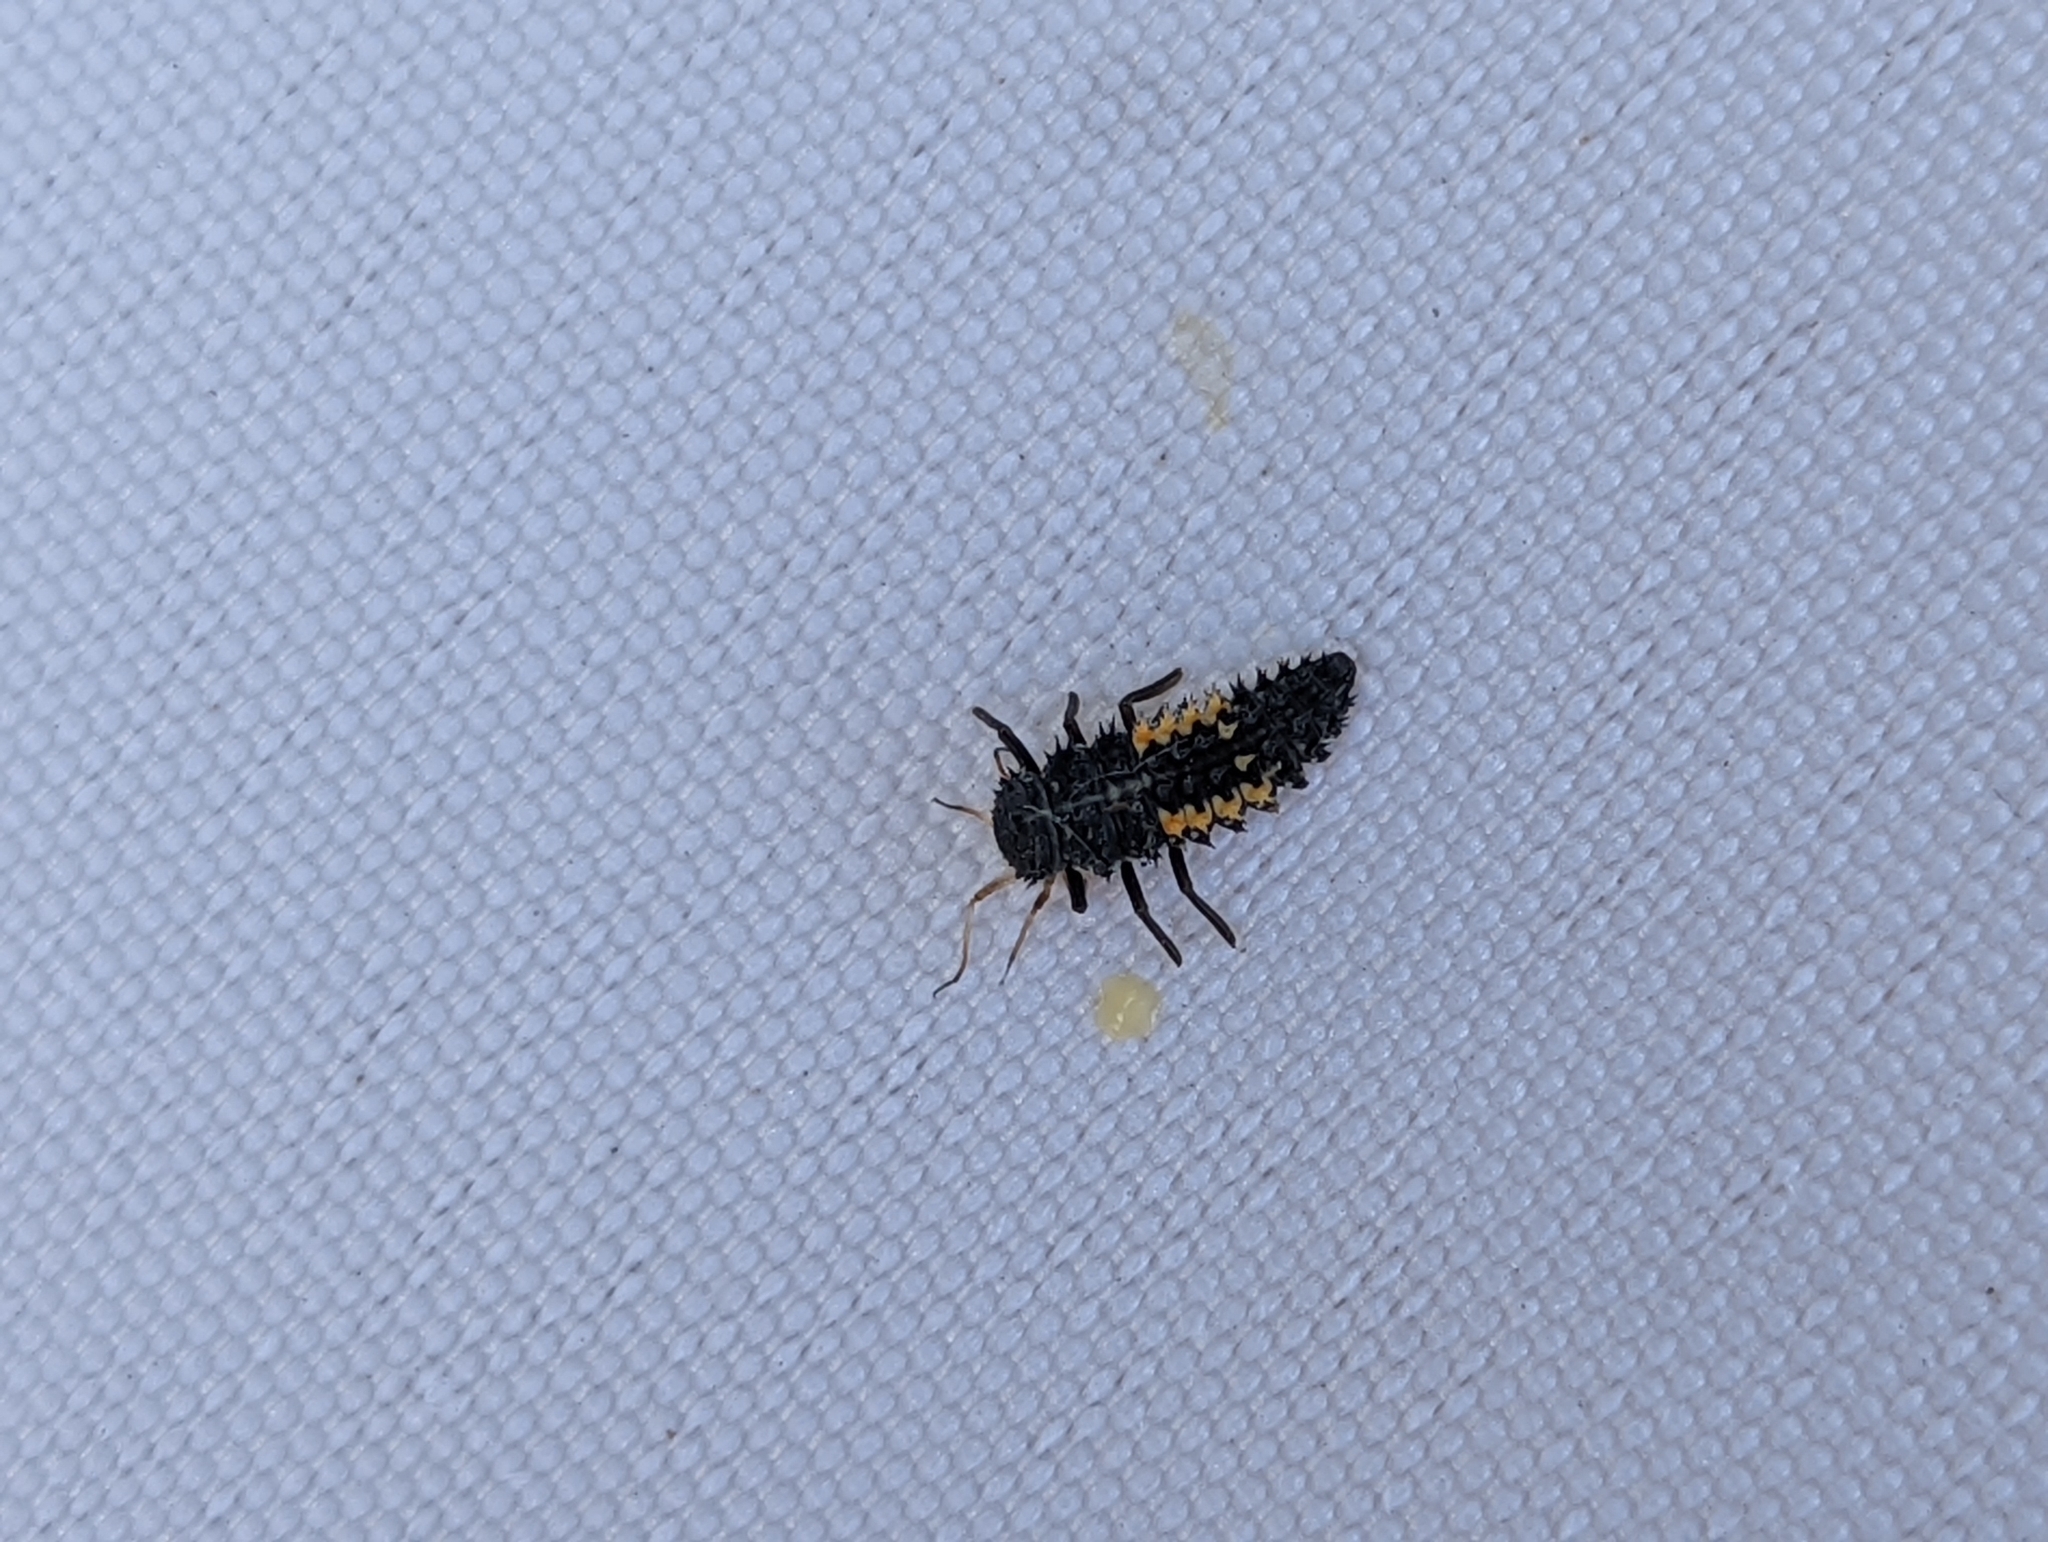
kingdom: Animalia
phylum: Arthropoda
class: Insecta
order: Coleoptera
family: Coccinellidae
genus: Harmonia
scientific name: Harmonia quadripunctata
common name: Cream-streaked ladybird
